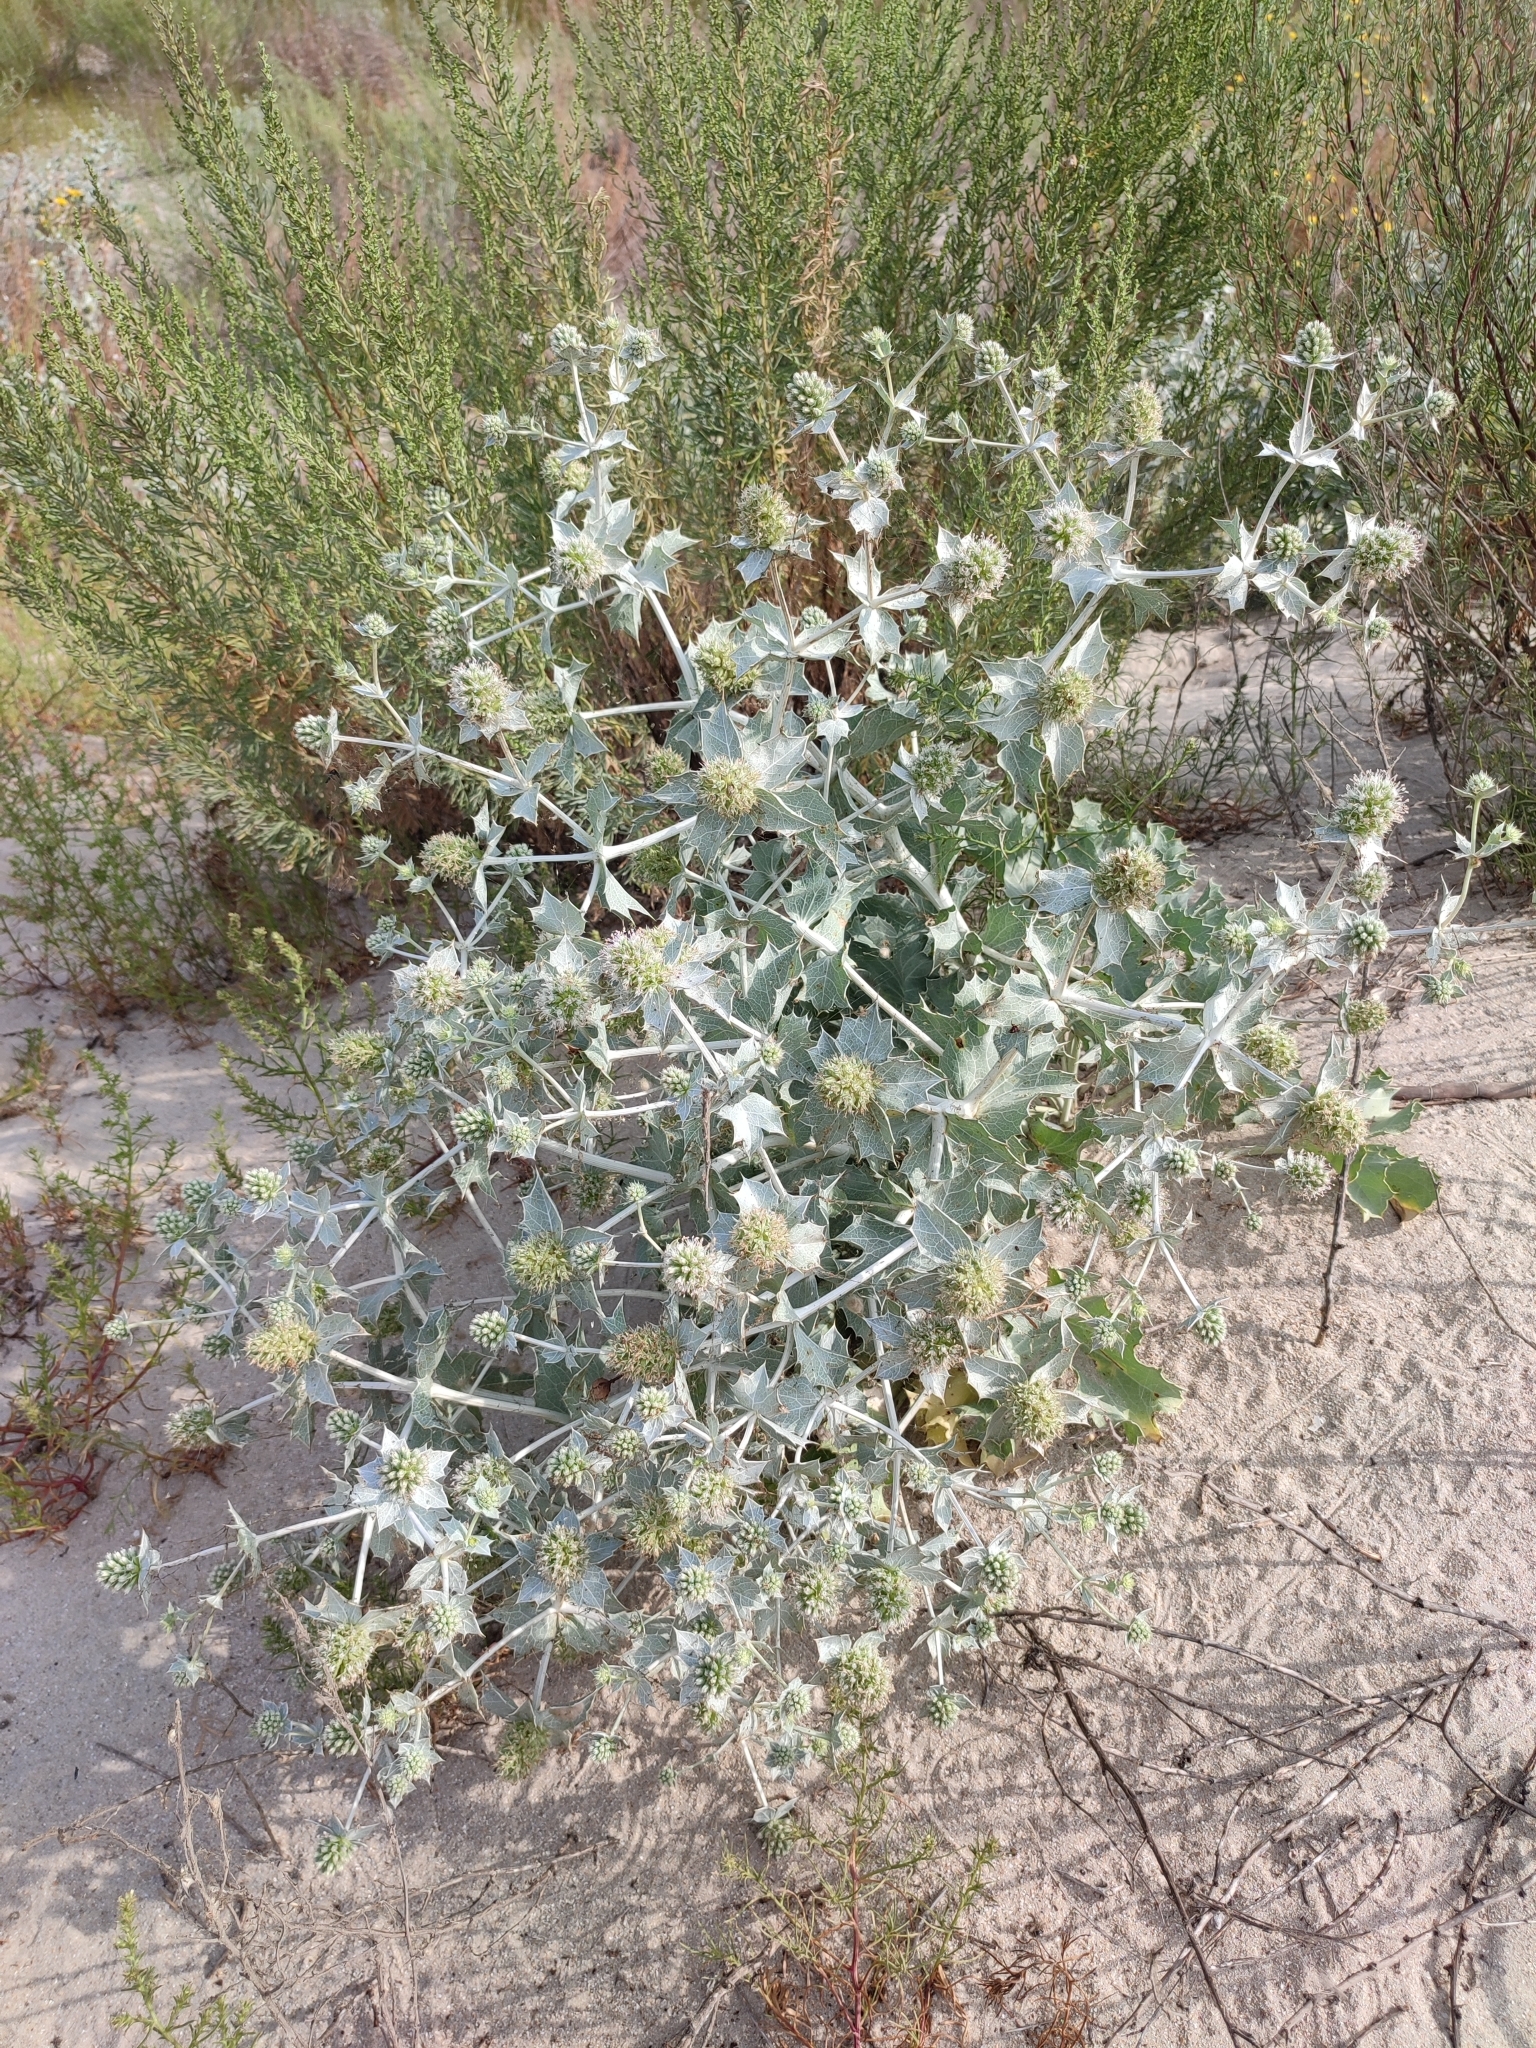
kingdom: Plantae
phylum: Tracheophyta
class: Magnoliopsida
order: Apiales
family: Apiaceae
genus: Eryngium
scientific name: Eryngium maritimum
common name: Sea-holly
